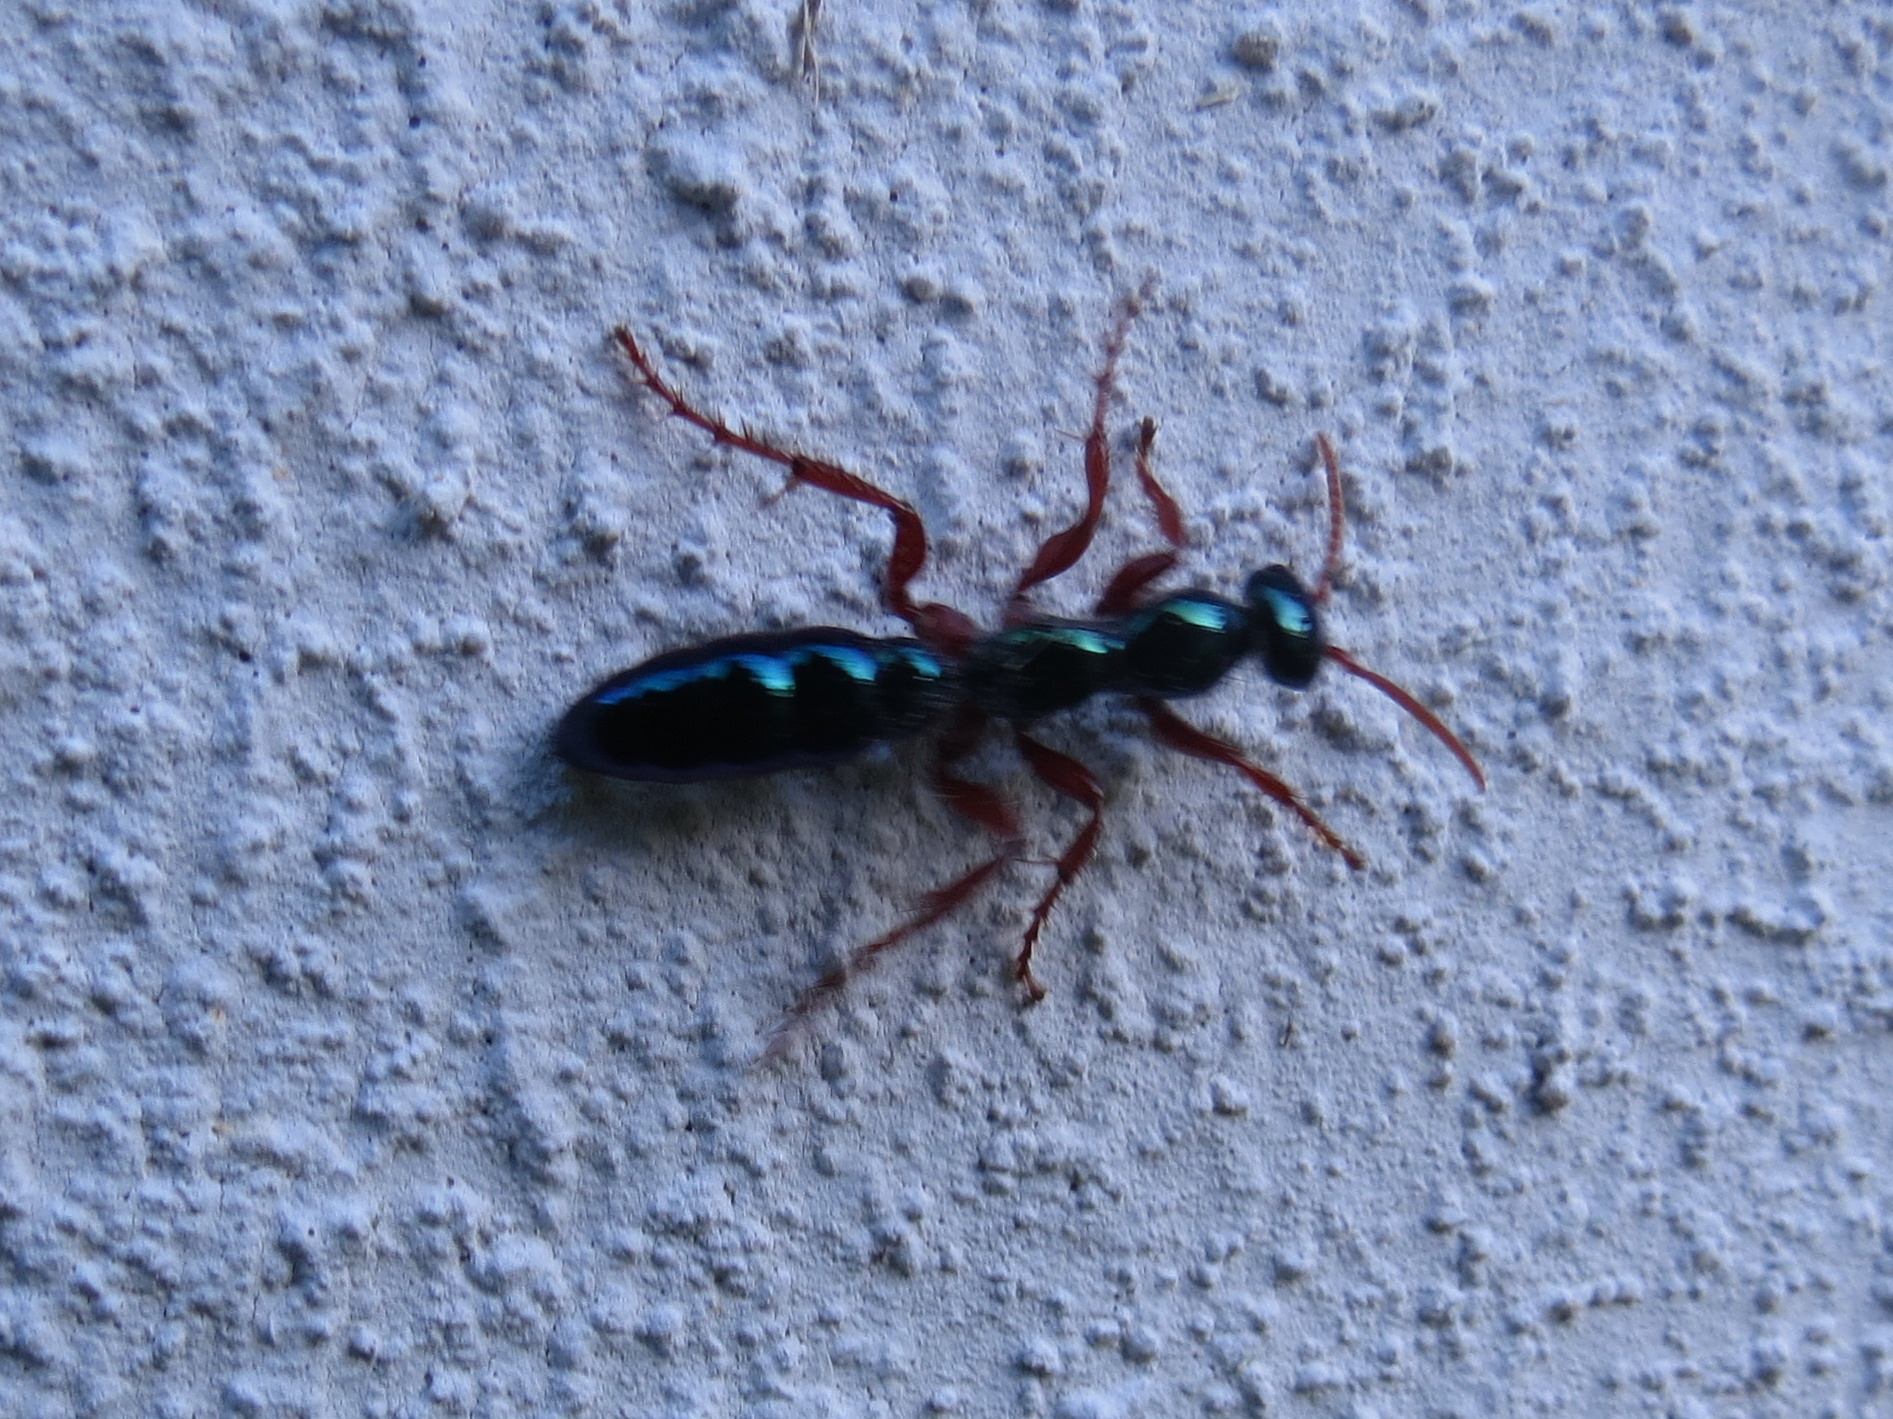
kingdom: Animalia
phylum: Arthropoda
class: Insecta
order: Hymenoptera
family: Tiphiidae
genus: Diamma
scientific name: Diamma
